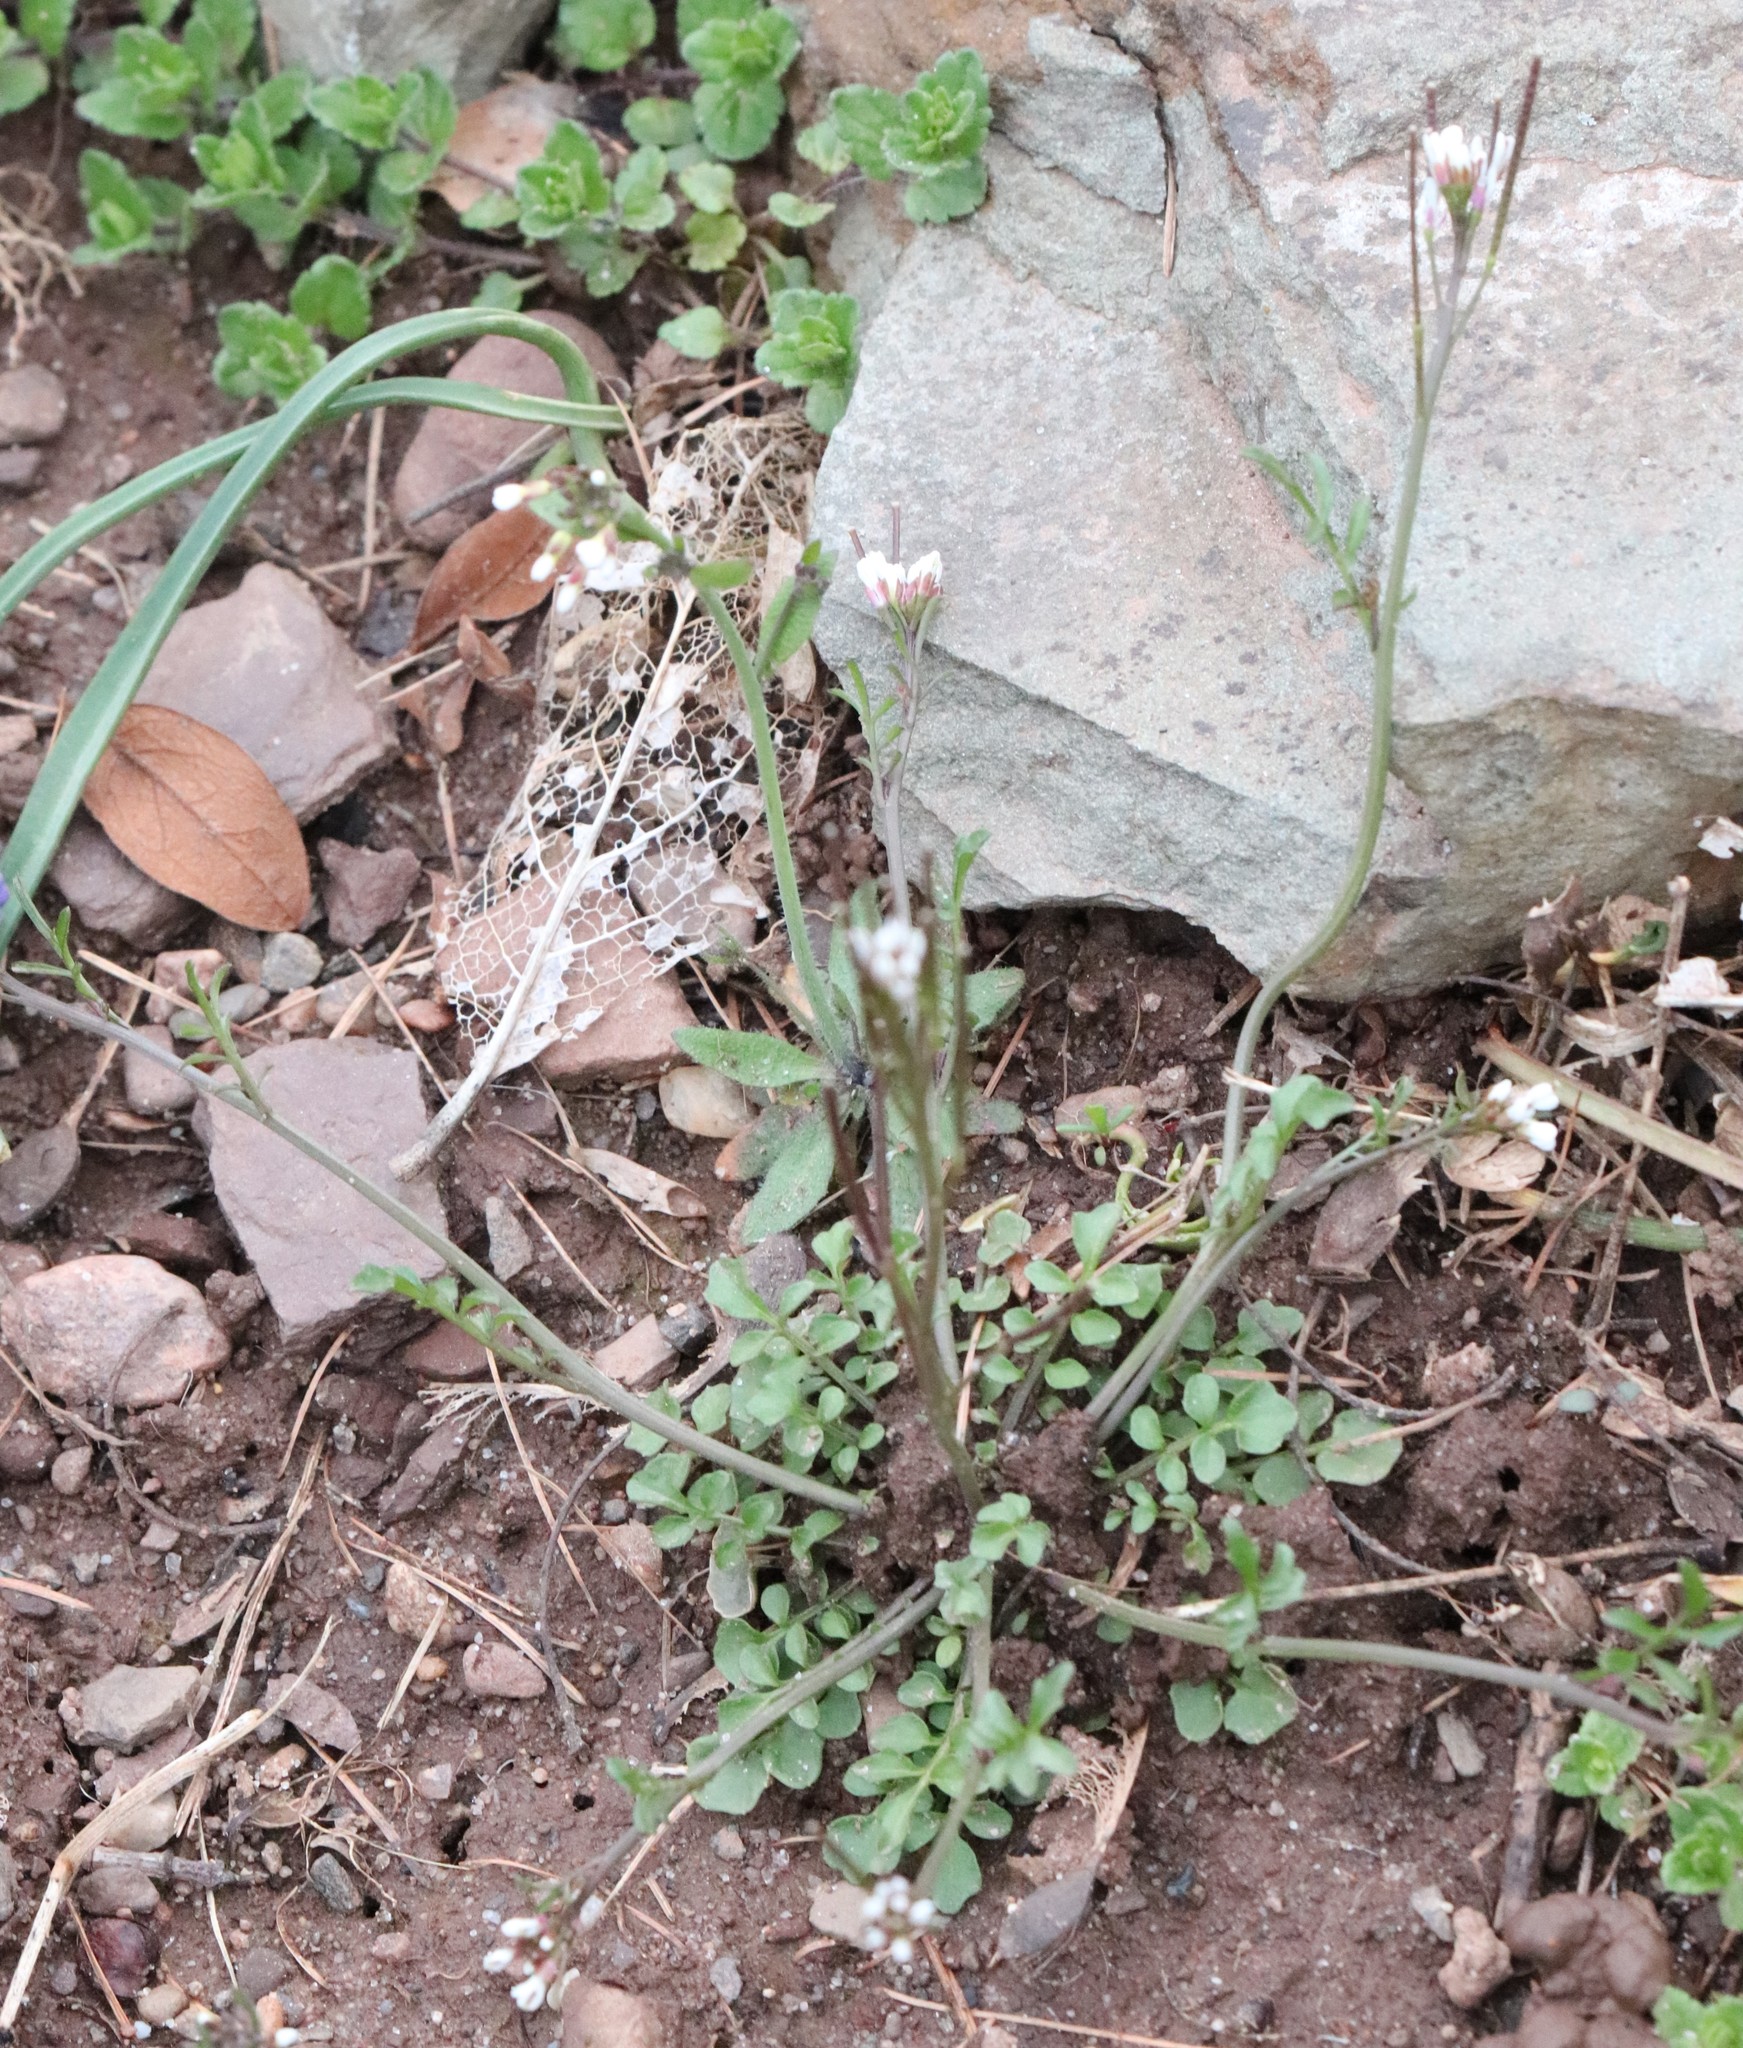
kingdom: Plantae
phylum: Tracheophyta
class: Magnoliopsida
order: Brassicales
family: Brassicaceae
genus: Cardamine
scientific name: Cardamine hirsuta
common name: Hairy bittercress
